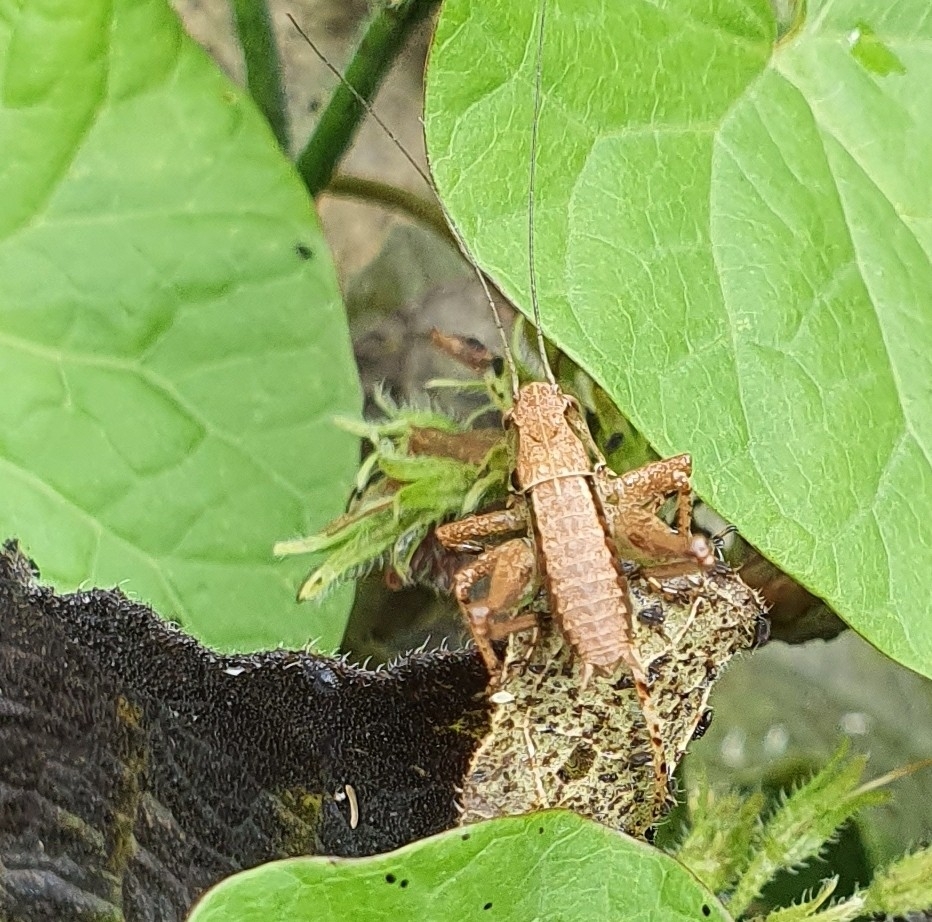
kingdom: Animalia
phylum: Arthropoda
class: Insecta
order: Orthoptera
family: Tettigoniidae
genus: Pholidoptera
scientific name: Pholidoptera griseoaptera
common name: Dark bush-cricket
